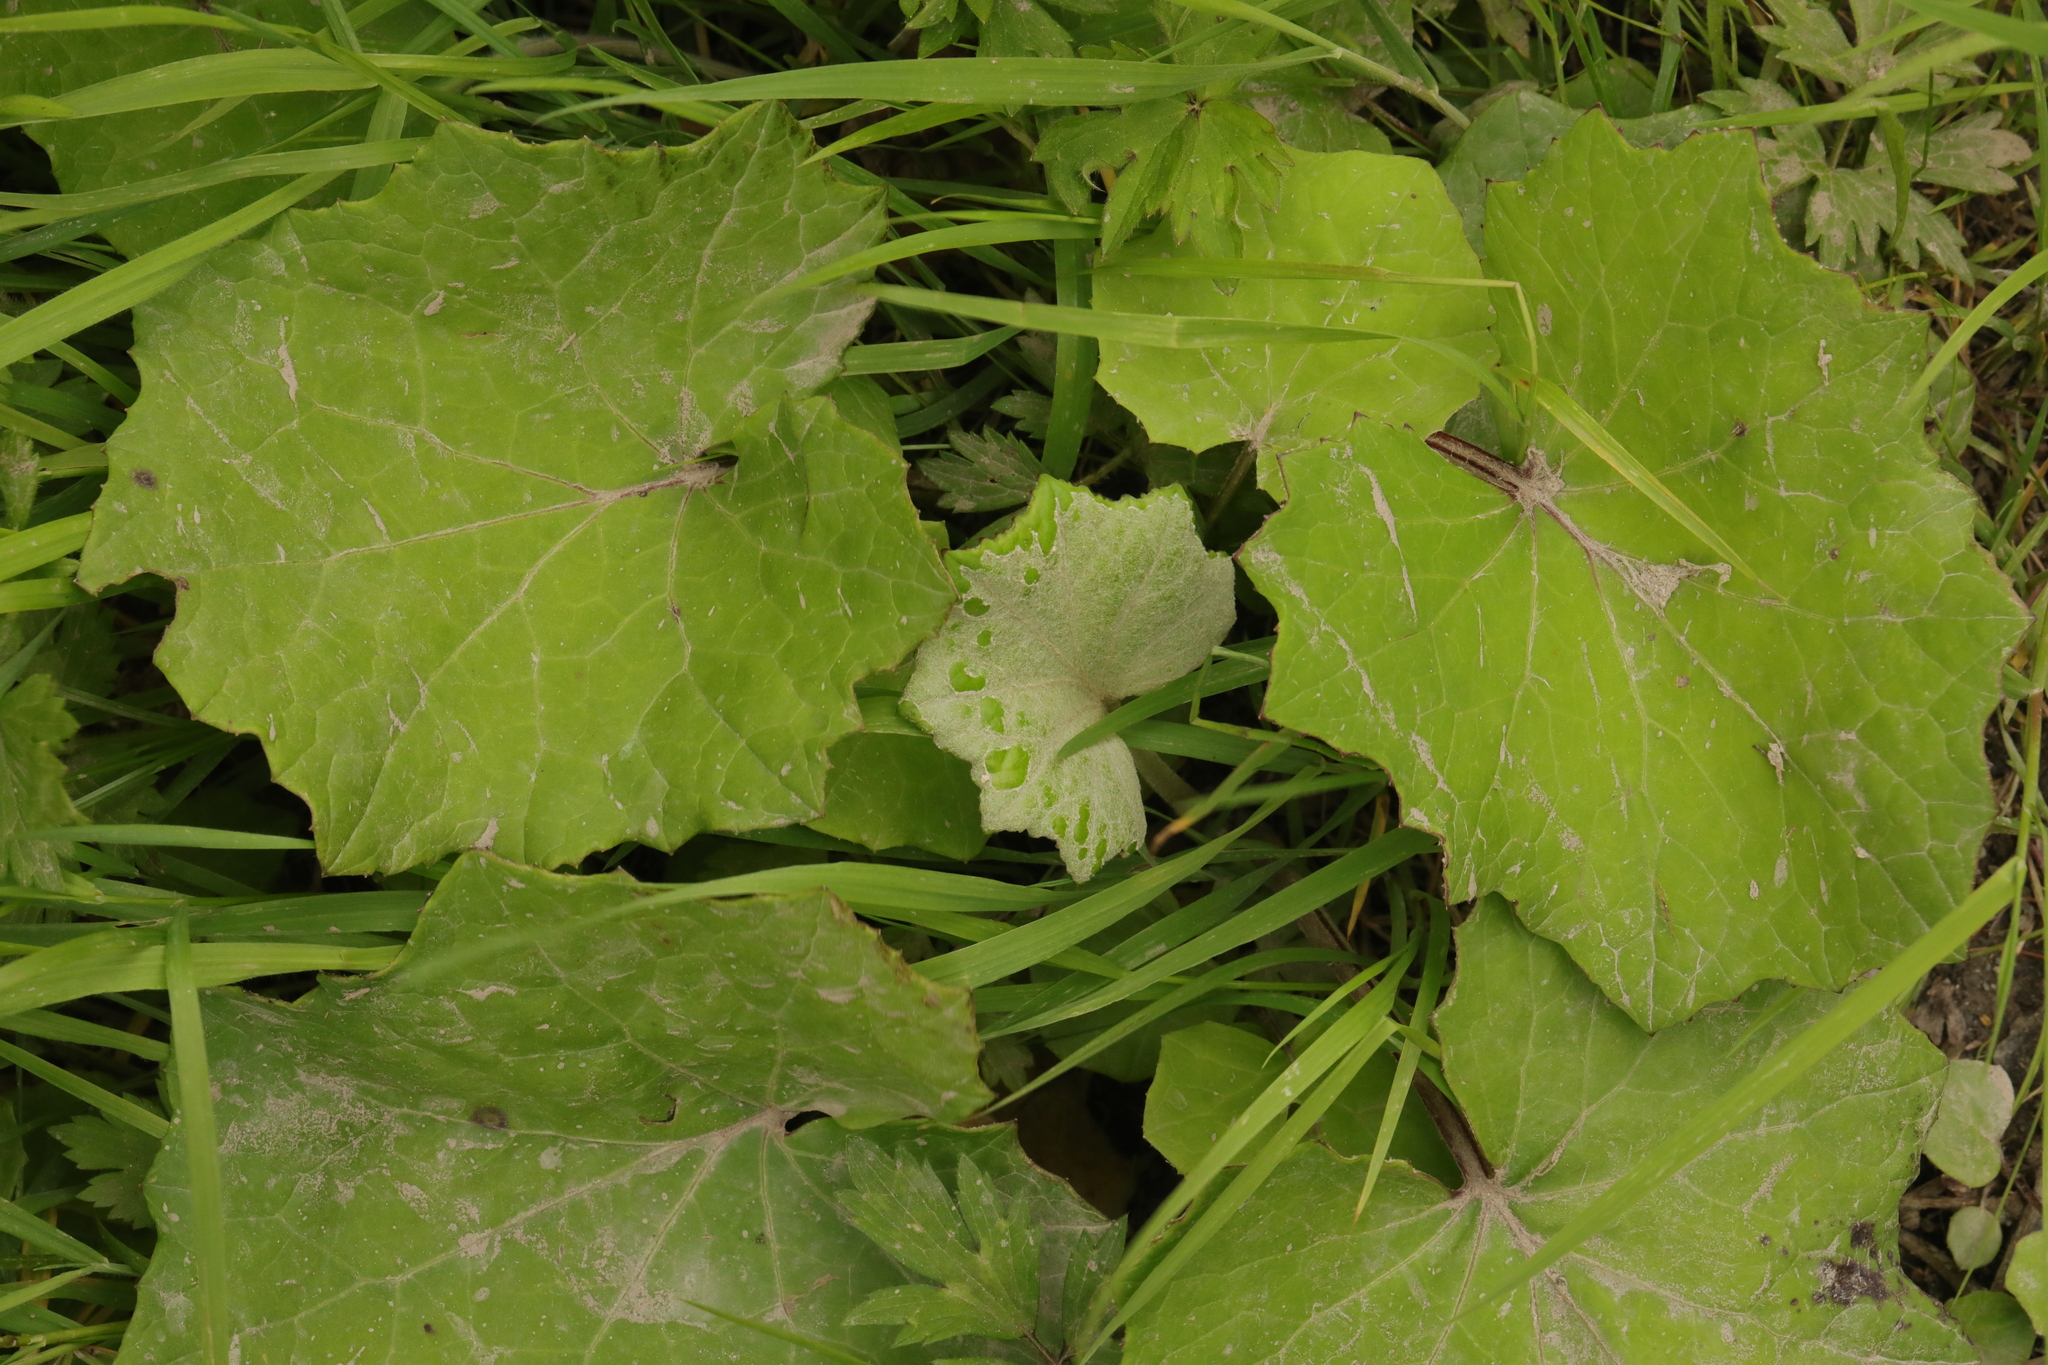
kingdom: Plantae
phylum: Tracheophyta
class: Magnoliopsida
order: Asterales
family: Asteraceae
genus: Tussilago
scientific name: Tussilago farfara
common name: Coltsfoot
